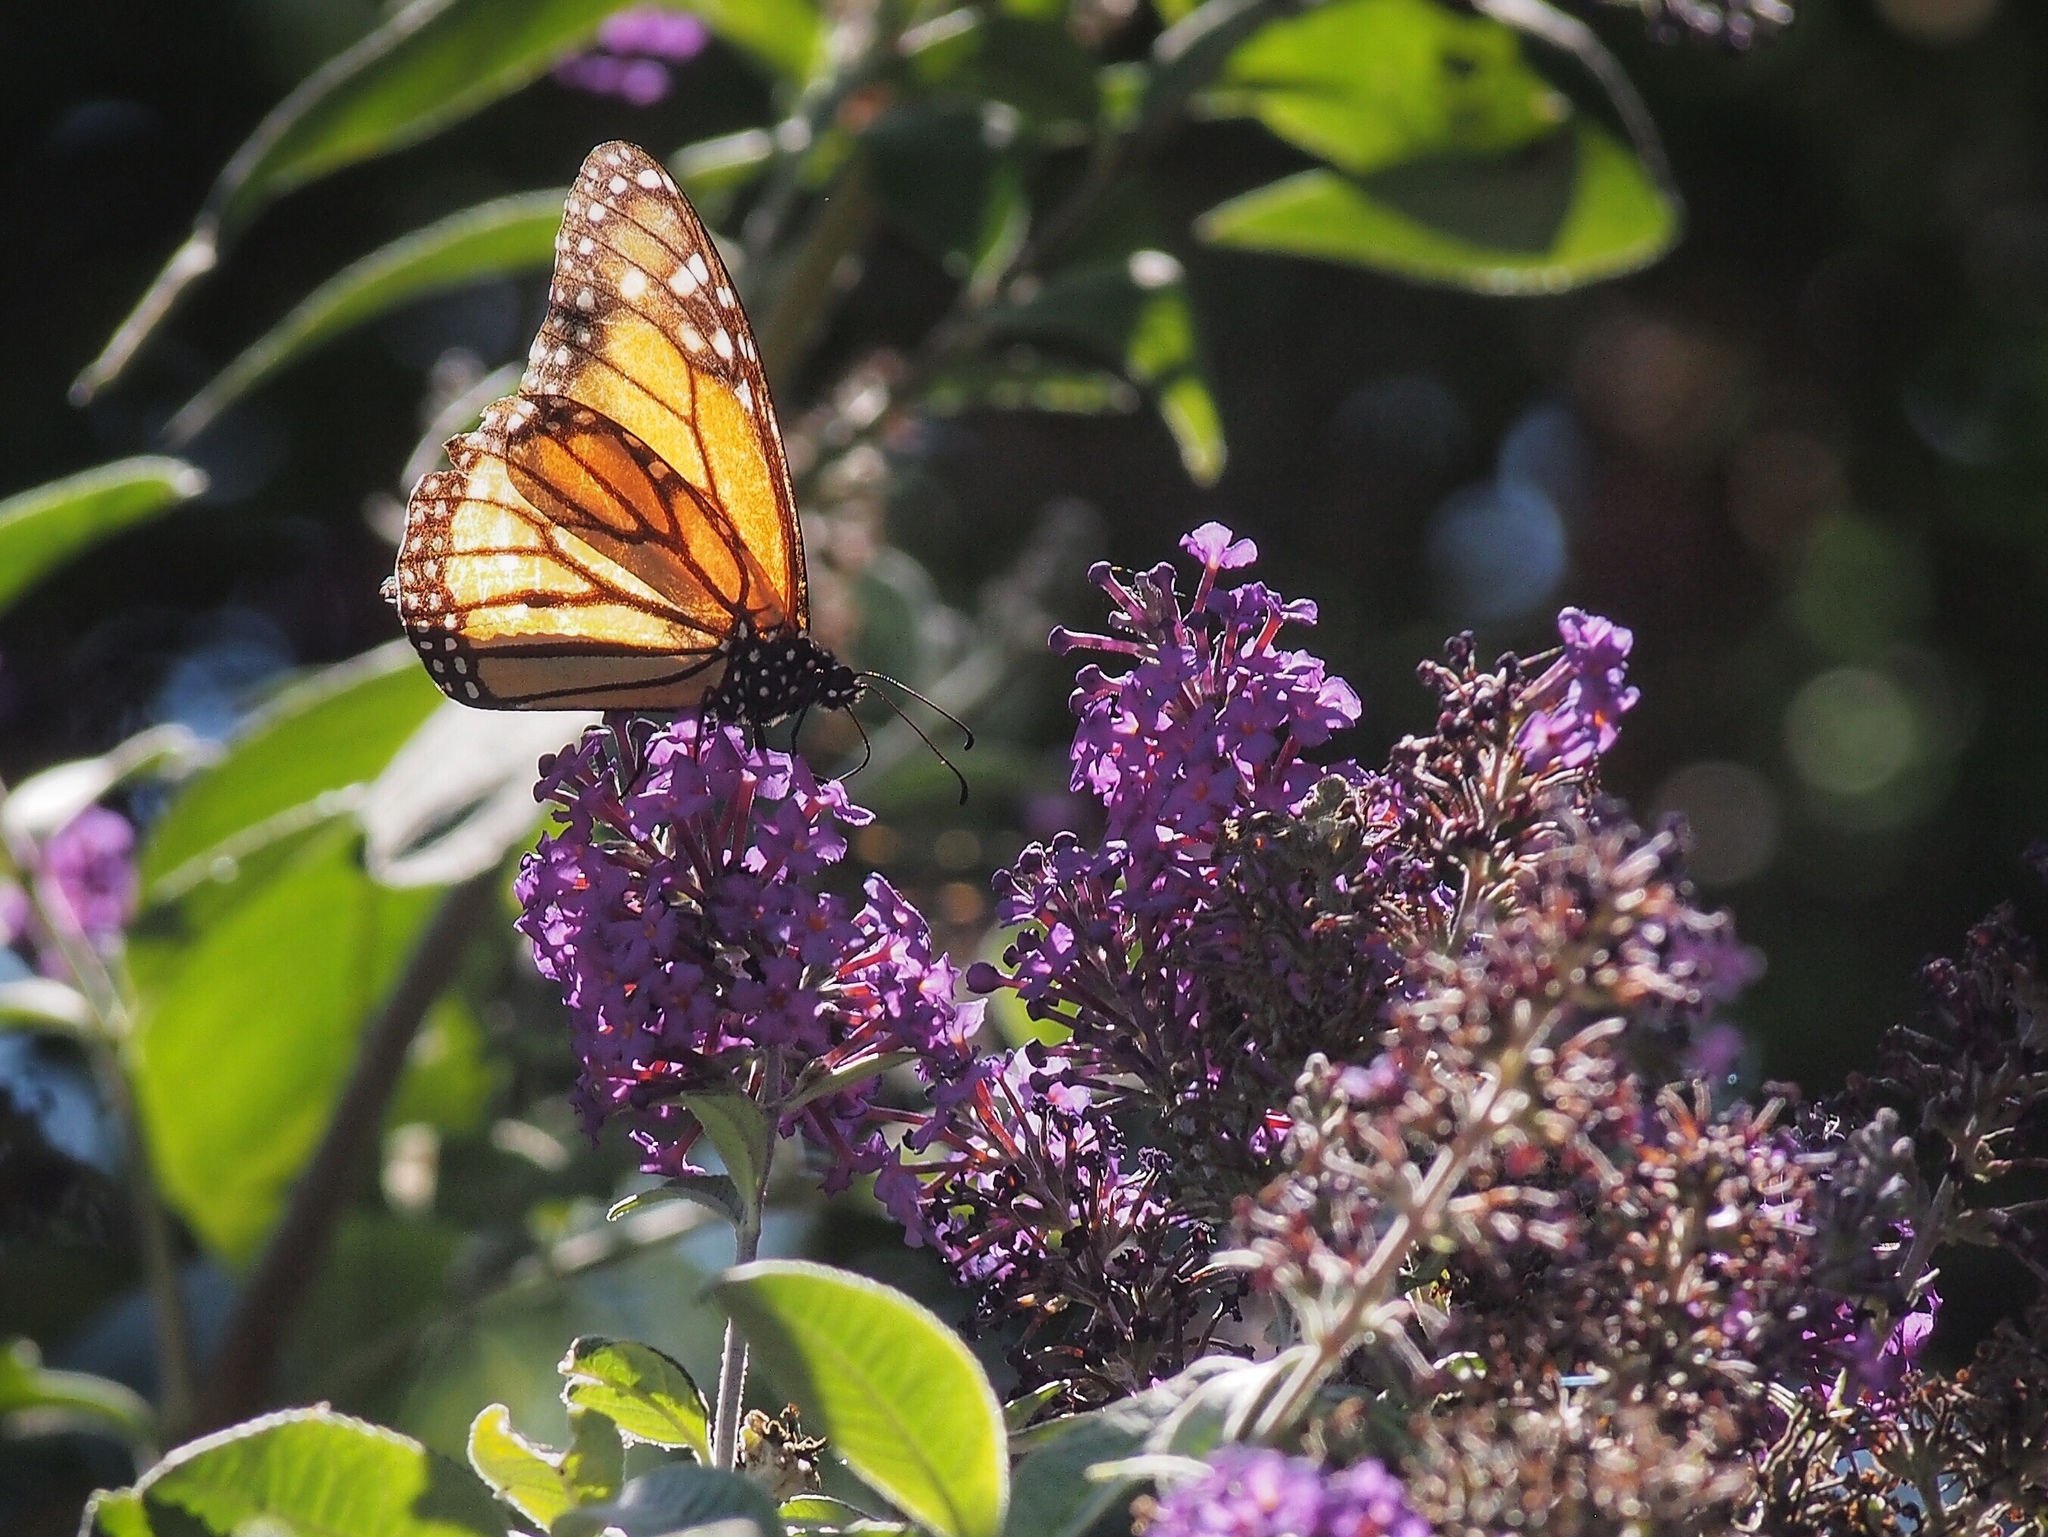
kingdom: Animalia
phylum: Arthropoda
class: Insecta
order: Lepidoptera
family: Nymphalidae
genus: Danaus
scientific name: Danaus plexippus
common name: Monarch
